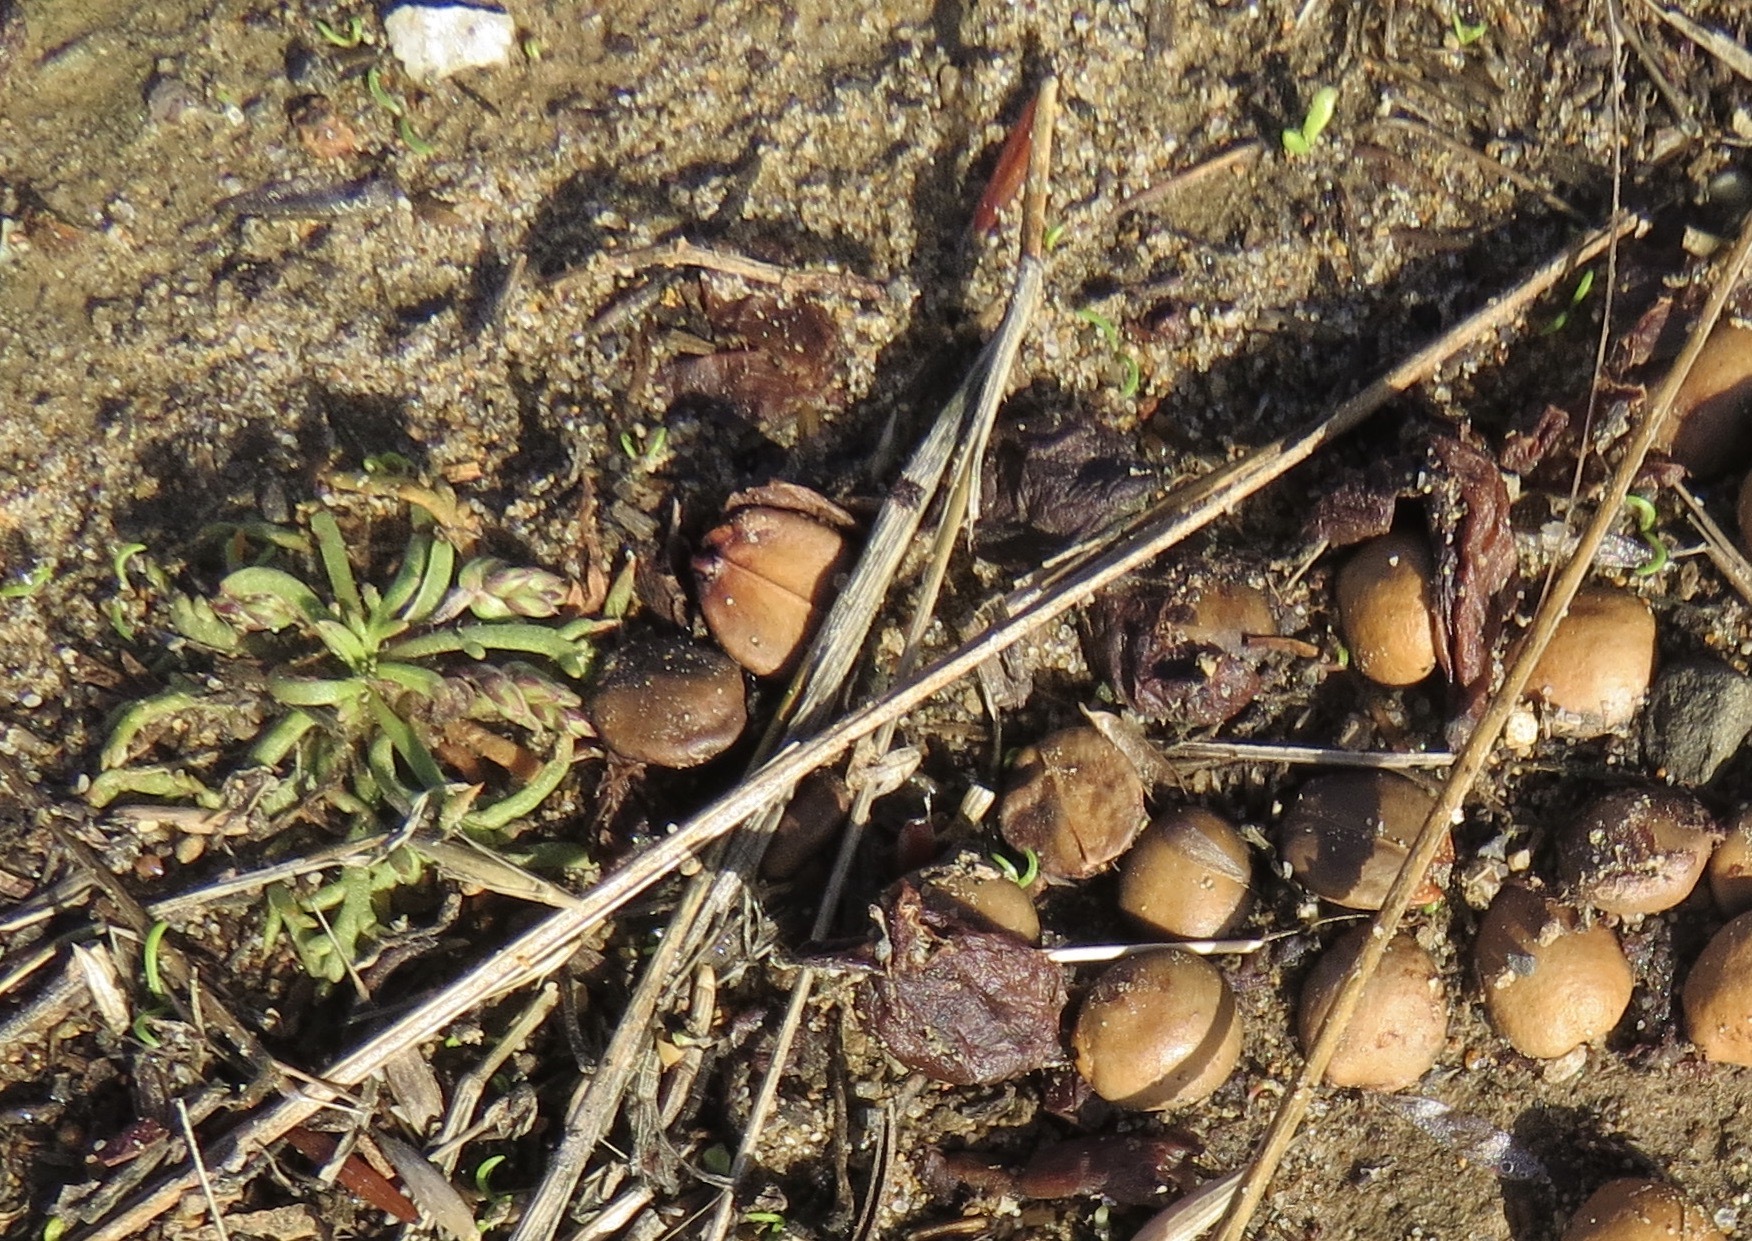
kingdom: Plantae
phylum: Tracheophyta
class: Magnoliopsida
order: Rosales
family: Rhamnaceae
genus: Frangula
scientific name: Frangula californica
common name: California buckthorn
